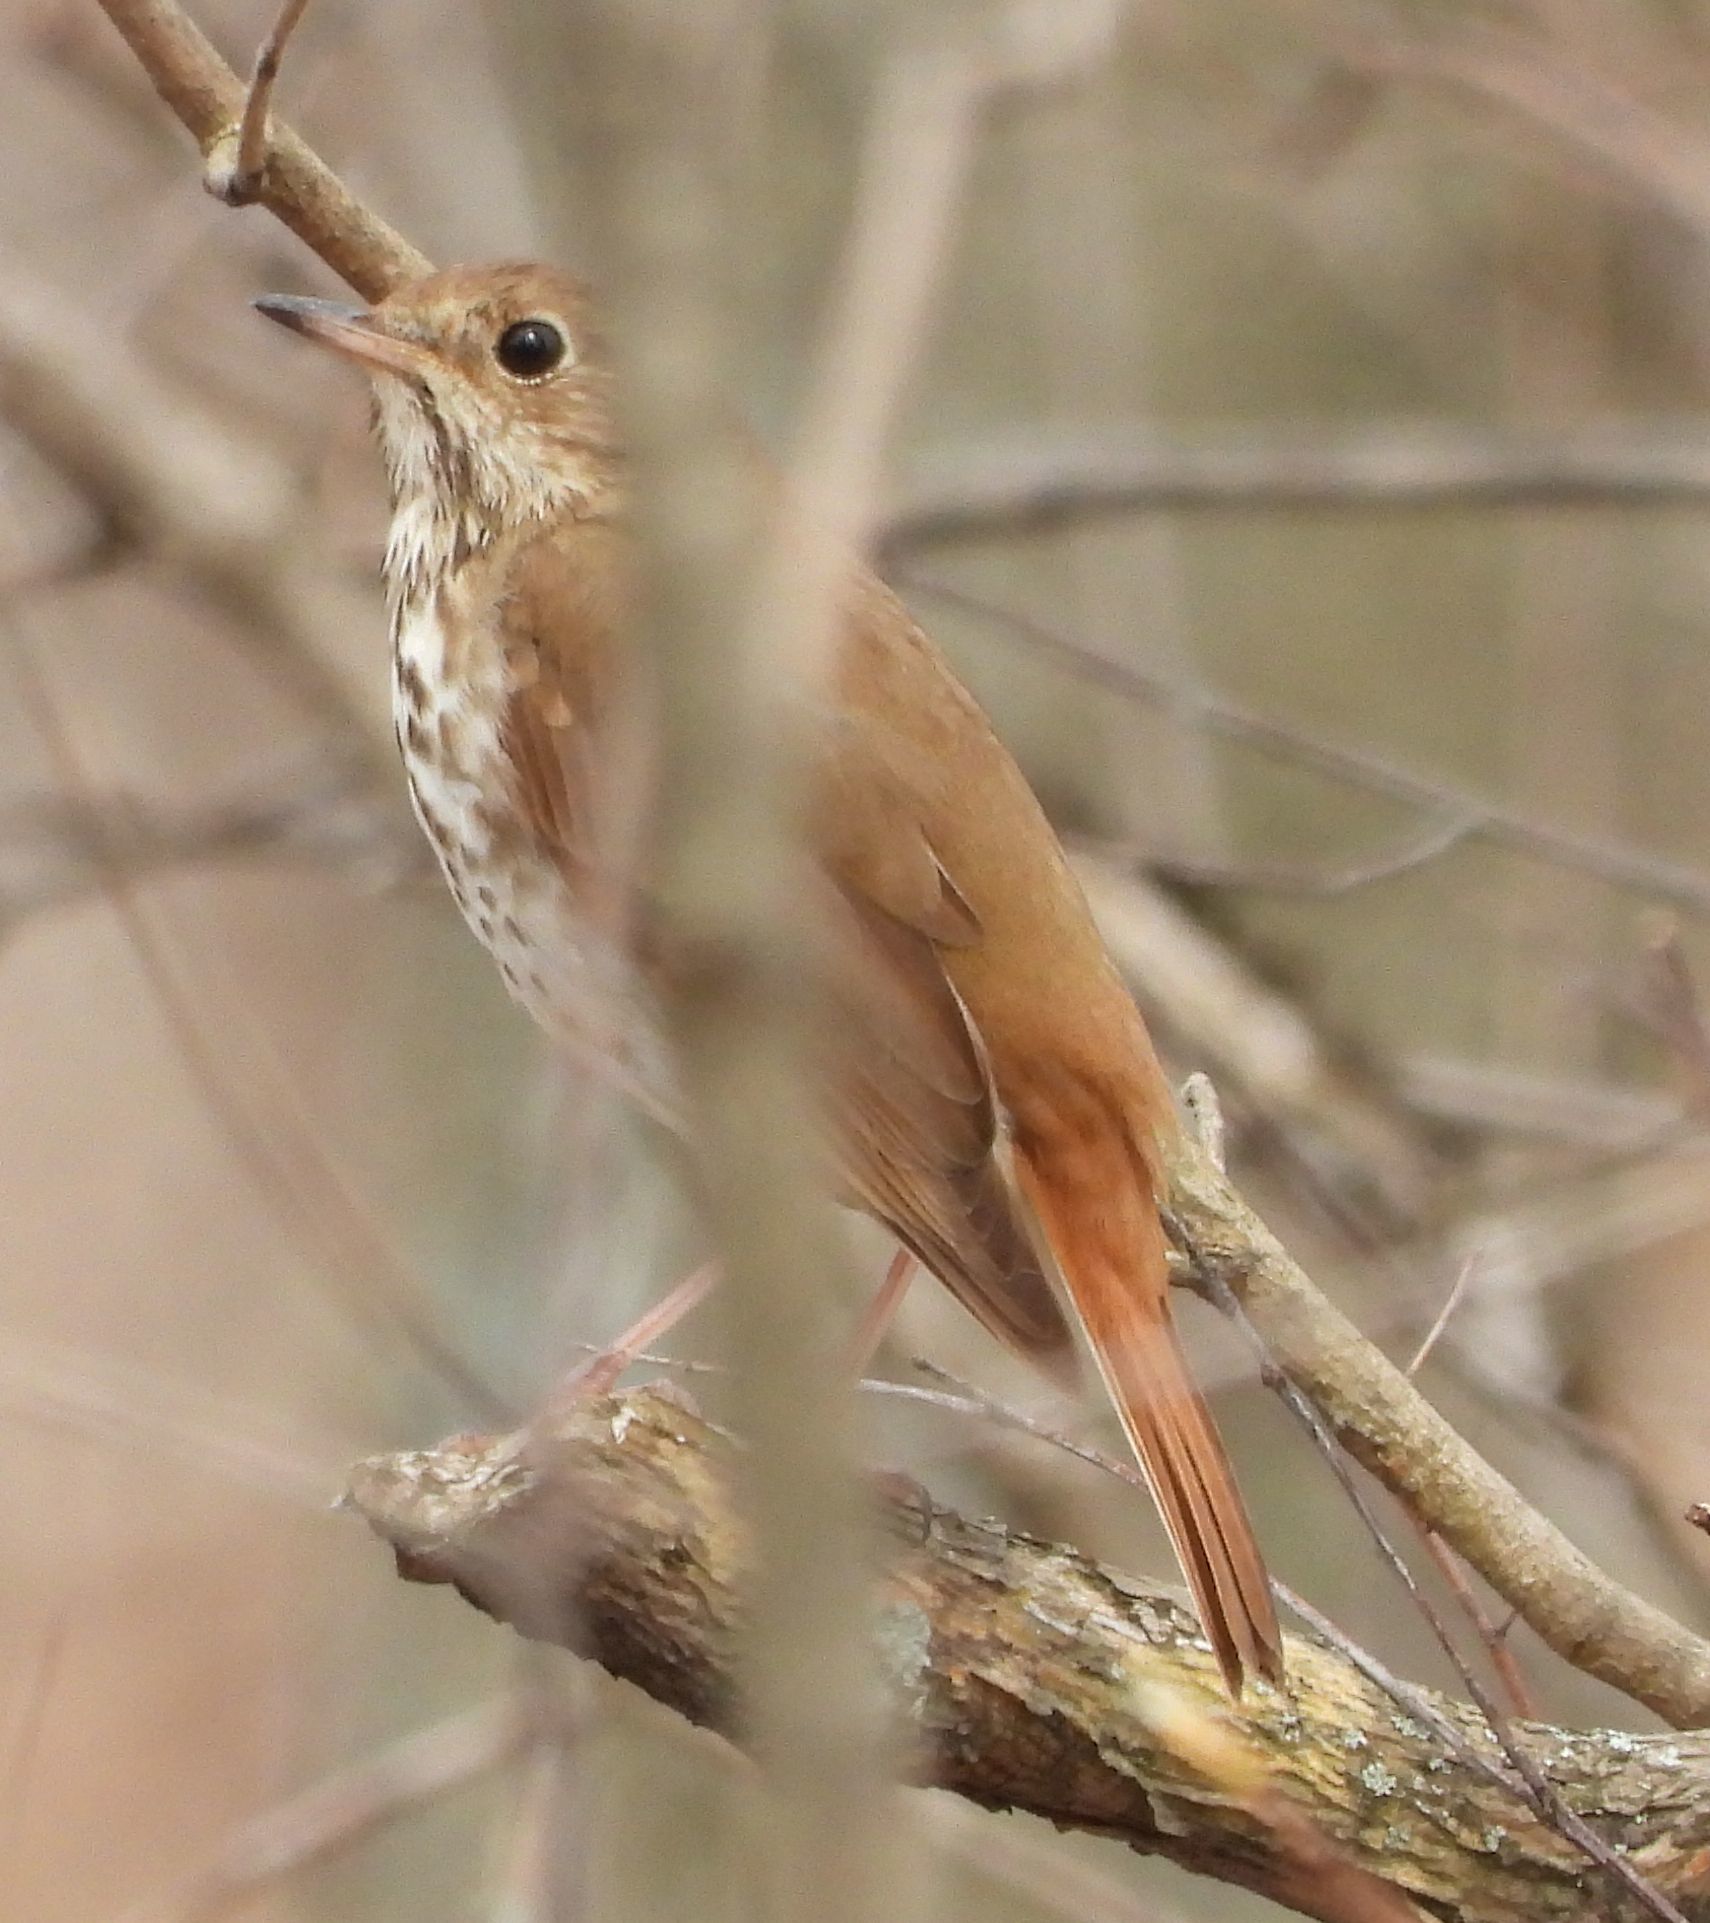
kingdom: Animalia
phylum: Chordata
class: Aves
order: Passeriformes
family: Turdidae
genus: Catharus
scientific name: Catharus guttatus
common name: Hermit thrush
